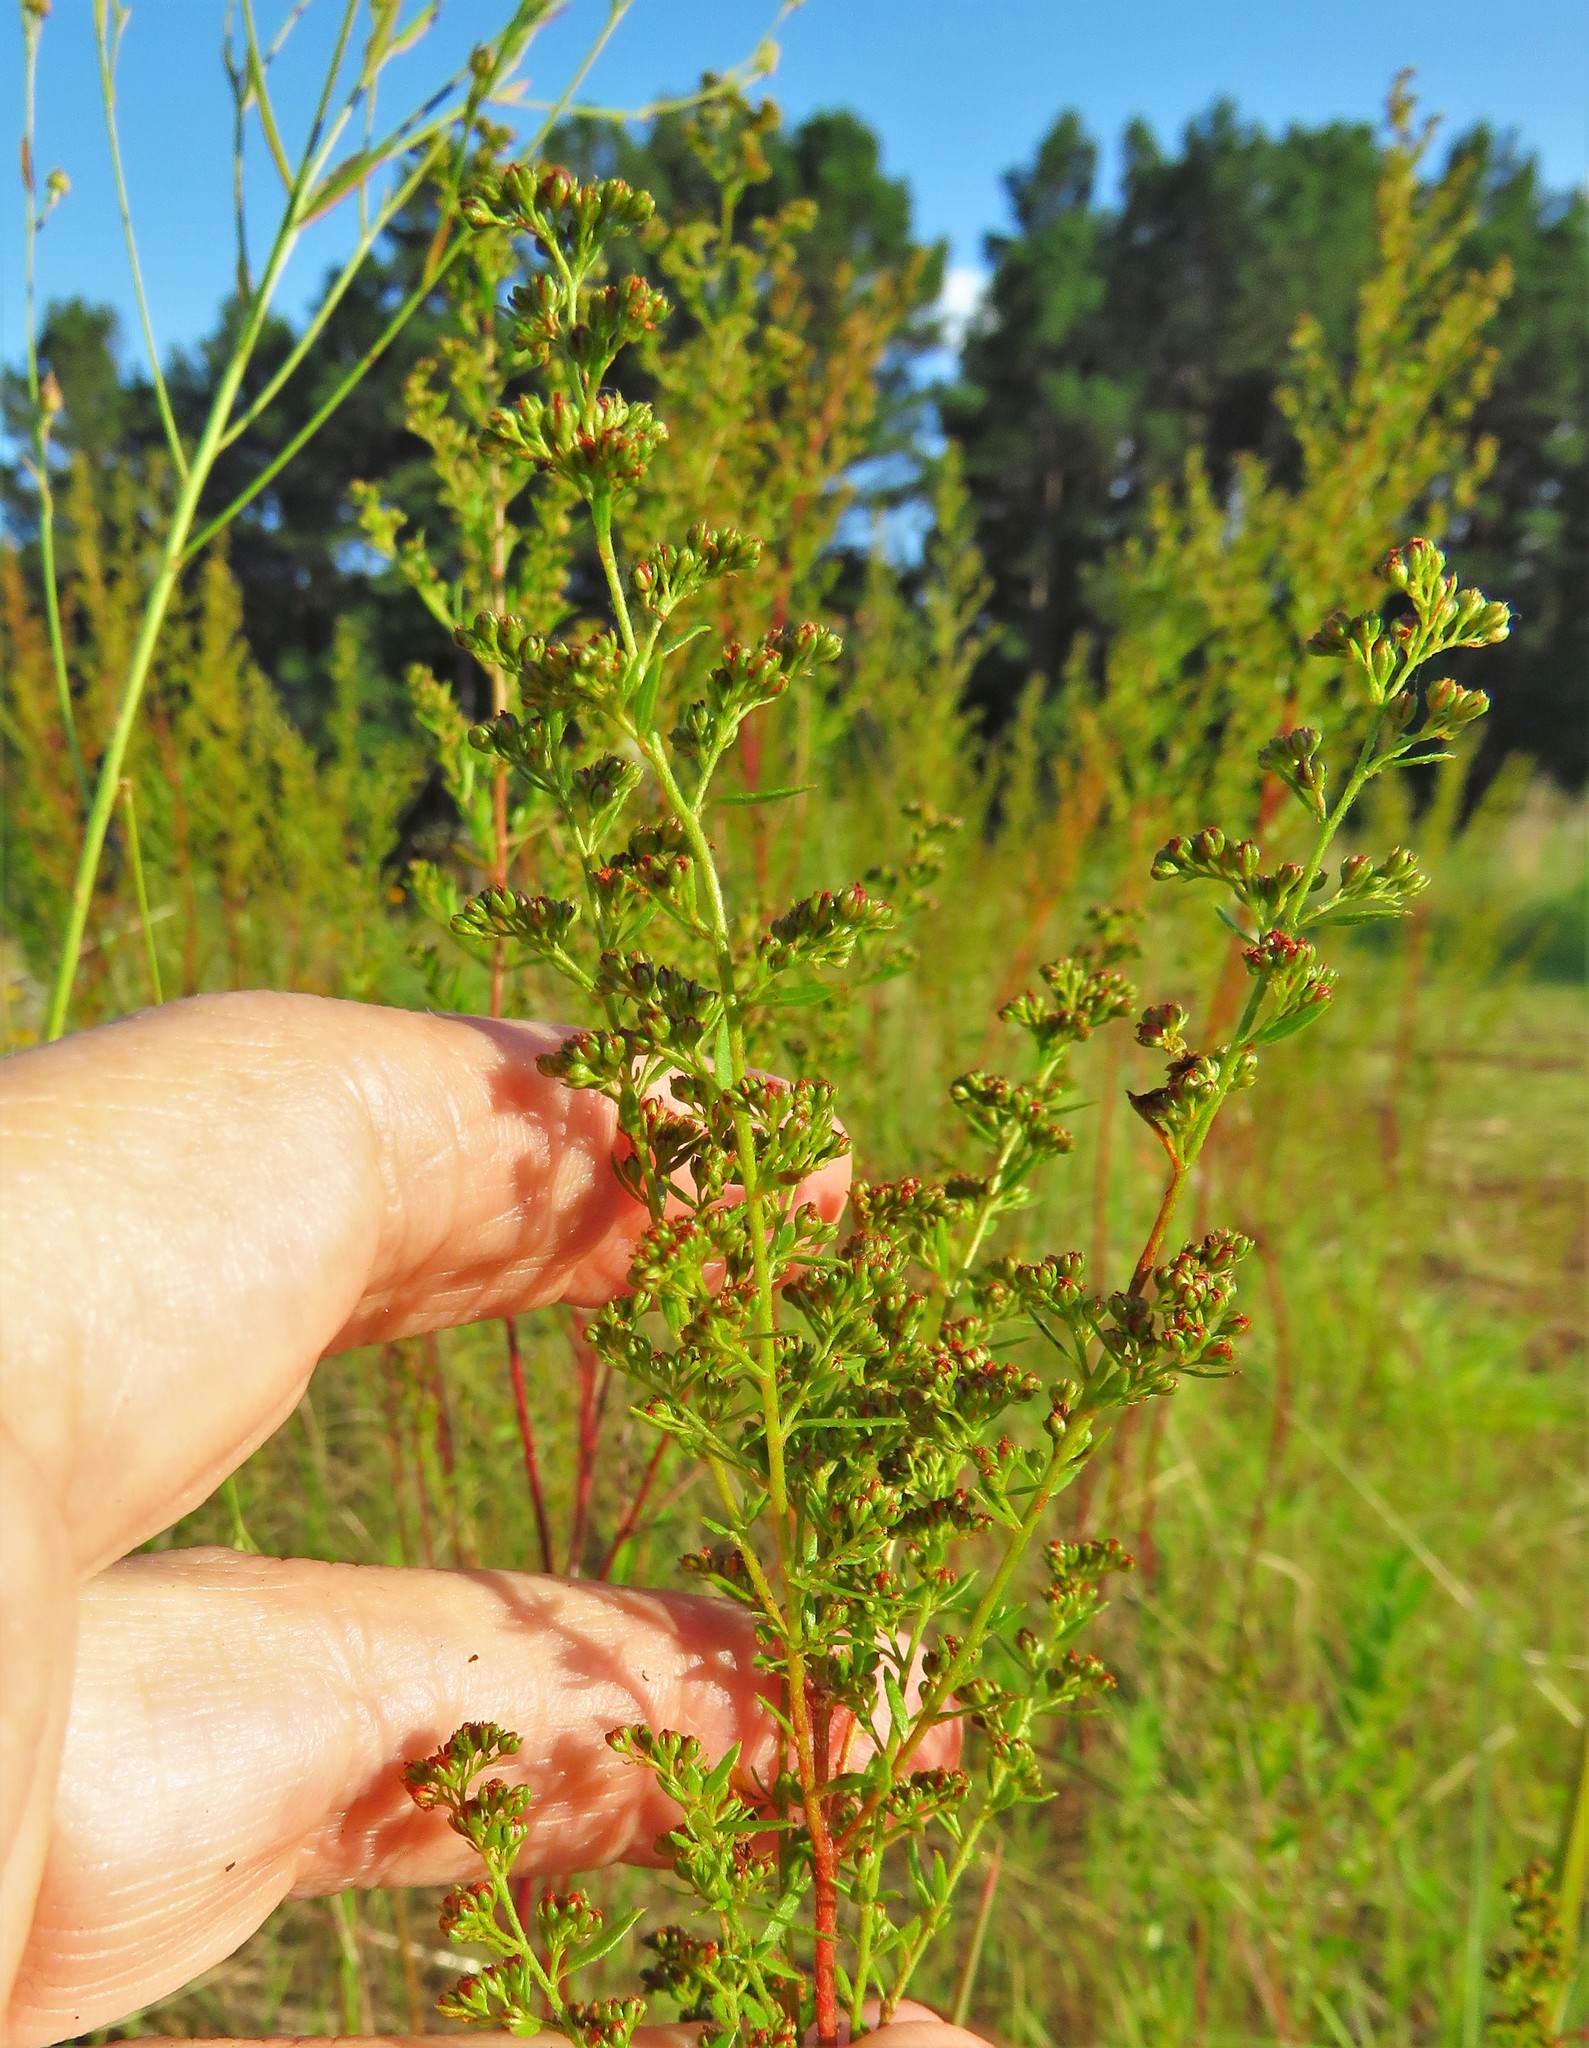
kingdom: Plantae
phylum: Tracheophyta
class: Magnoliopsida
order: Malvales
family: Cistaceae
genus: Lechea
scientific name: Lechea mucronata
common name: Hairy pinweed
